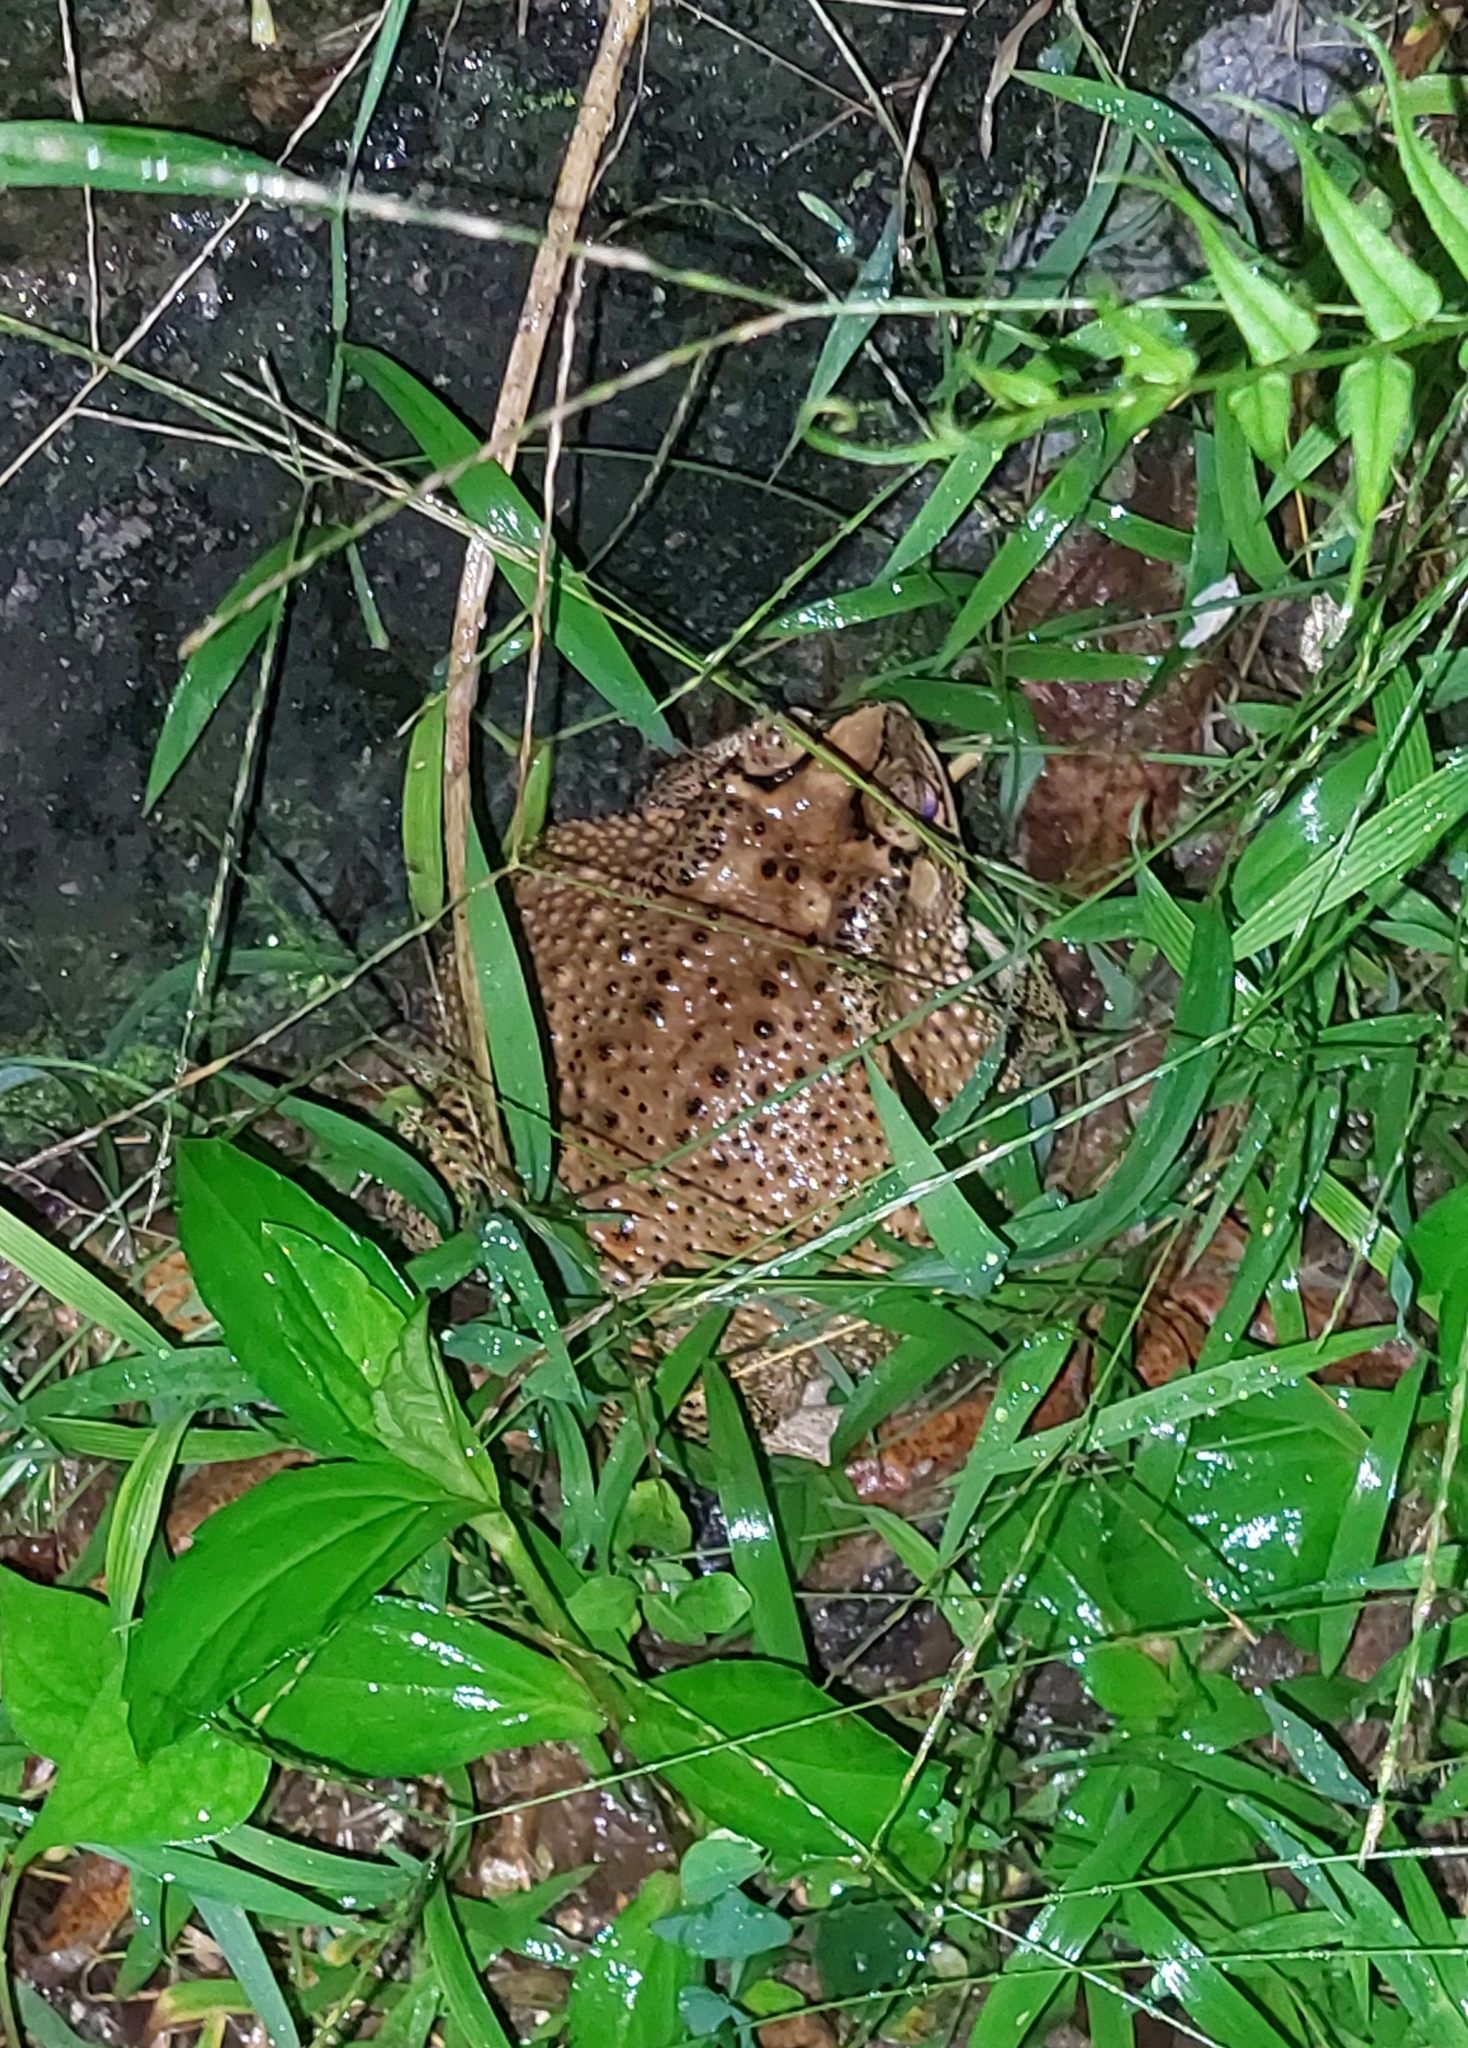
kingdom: Animalia
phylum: Chordata
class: Amphibia
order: Anura
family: Bufonidae
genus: Duttaphrynus
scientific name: Duttaphrynus melanostictus
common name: Common sunda toad
